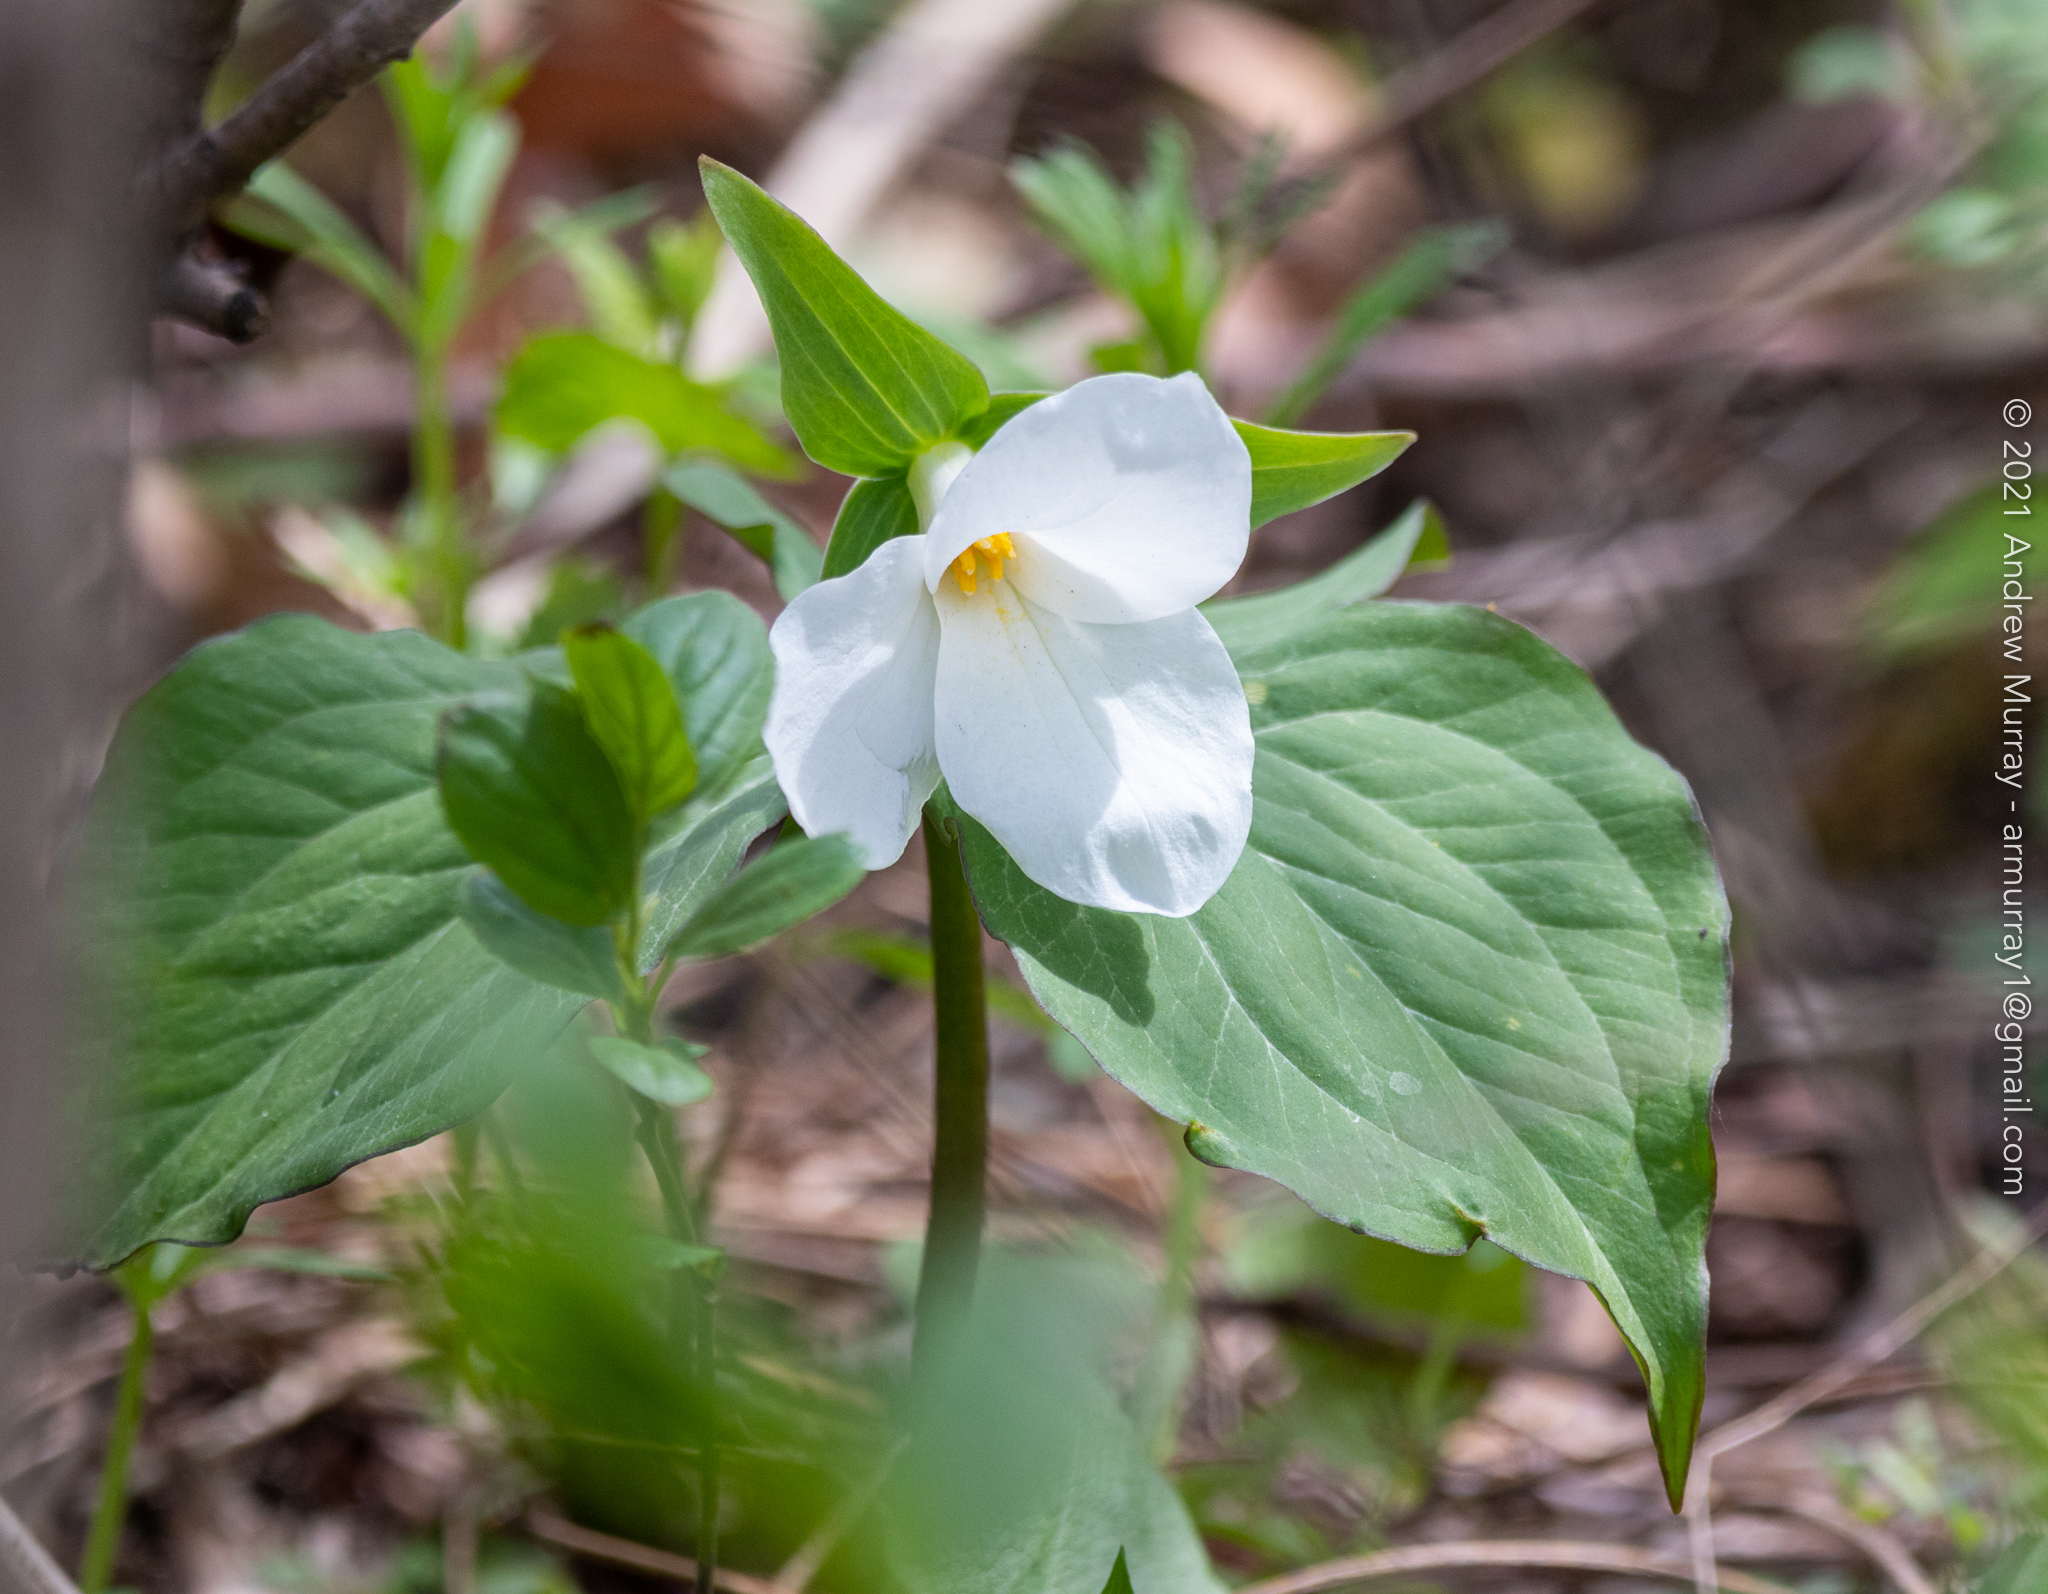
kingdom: Plantae
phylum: Tracheophyta
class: Liliopsida
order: Liliales
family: Melanthiaceae
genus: Trillium
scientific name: Trillium grandiflorum
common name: Great white trillium
